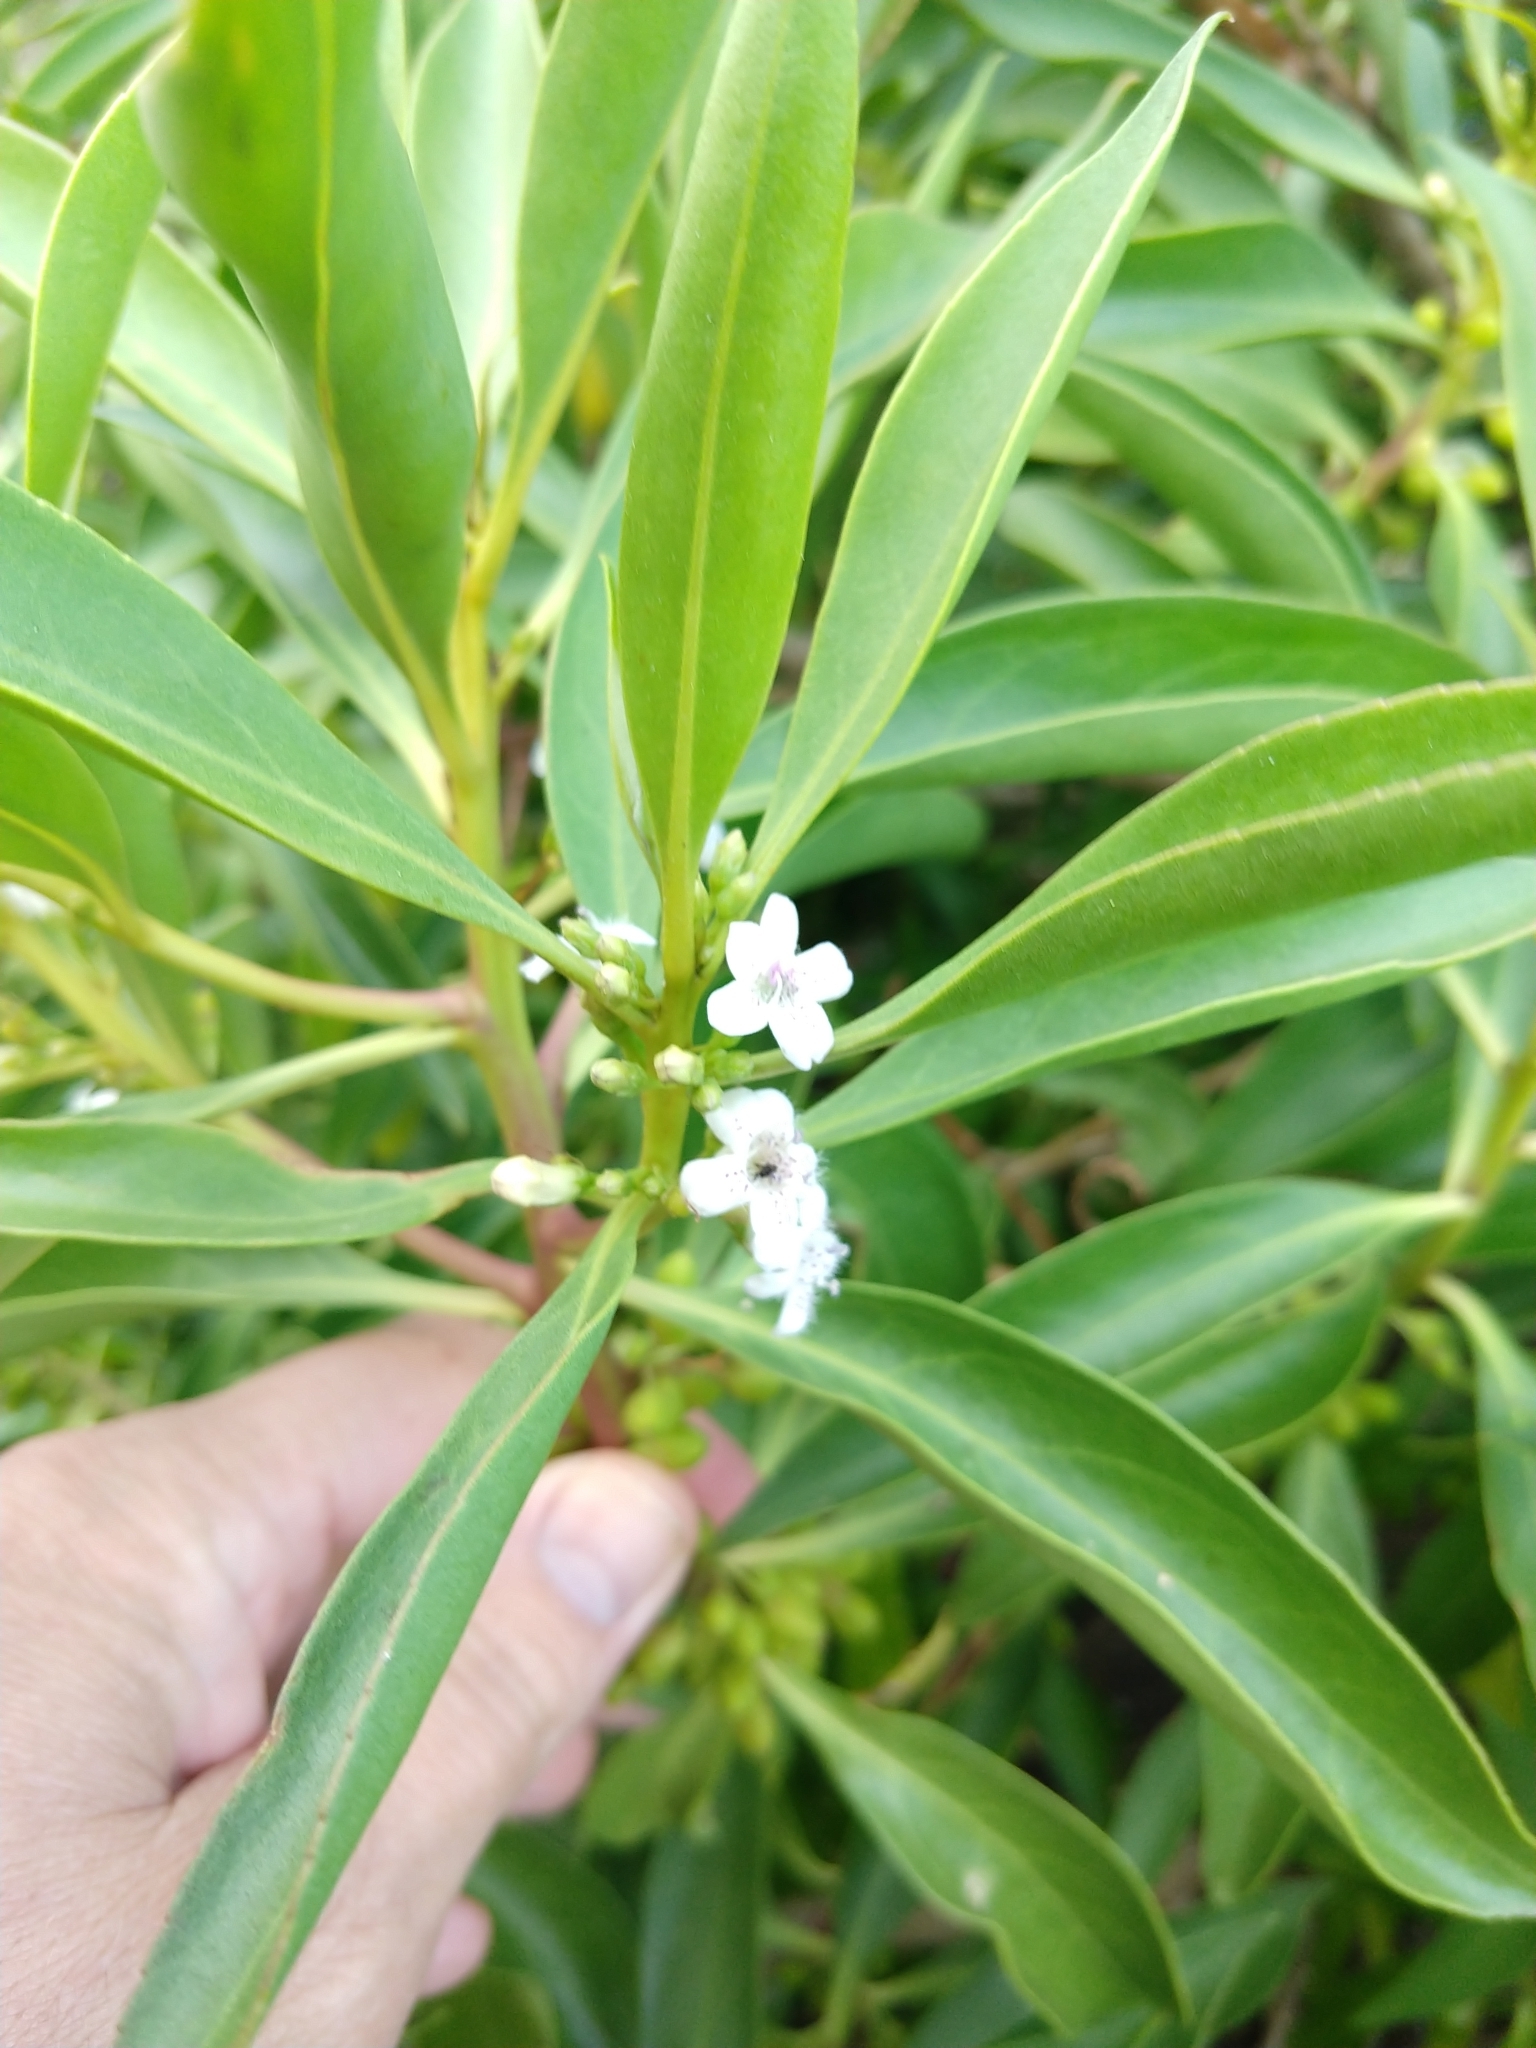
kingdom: Plantae
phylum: Tracheophyta
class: Magnoliopsida
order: Lamiales
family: Scrophulariaceae
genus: Myoporum
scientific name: Myoporum montanum
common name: Waterbush
